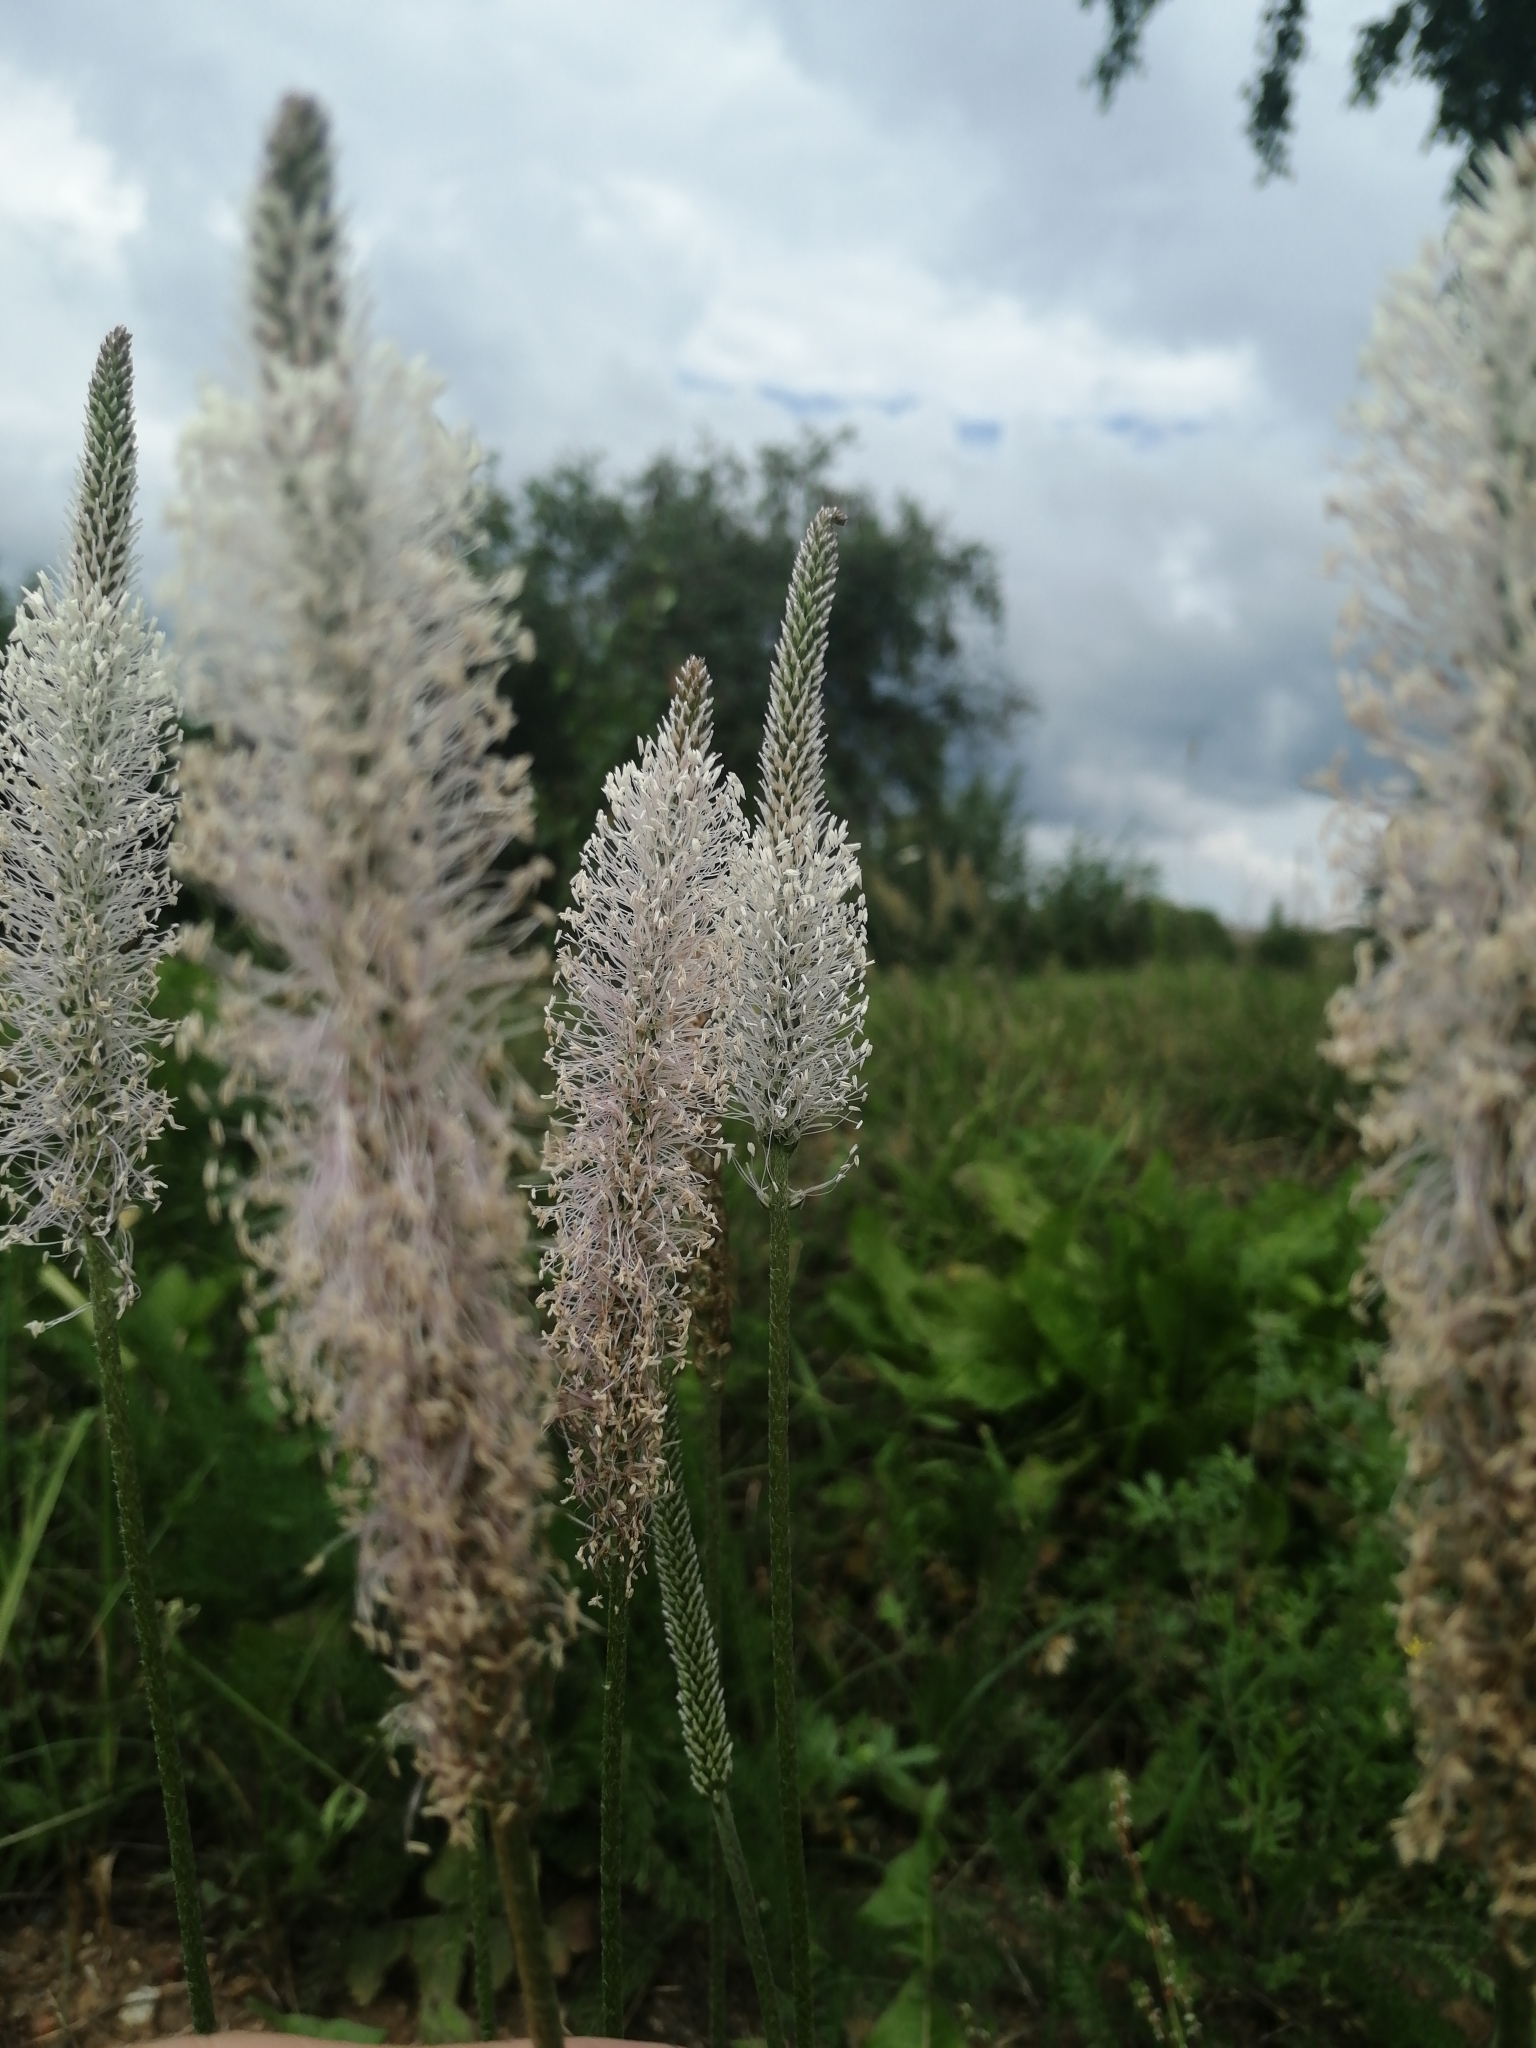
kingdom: Plantae
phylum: Tracheophyta
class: Magnoliopsida
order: Lamiales
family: Plantaginaceae
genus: Plantago
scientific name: Plantago media
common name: Hoary plantain
